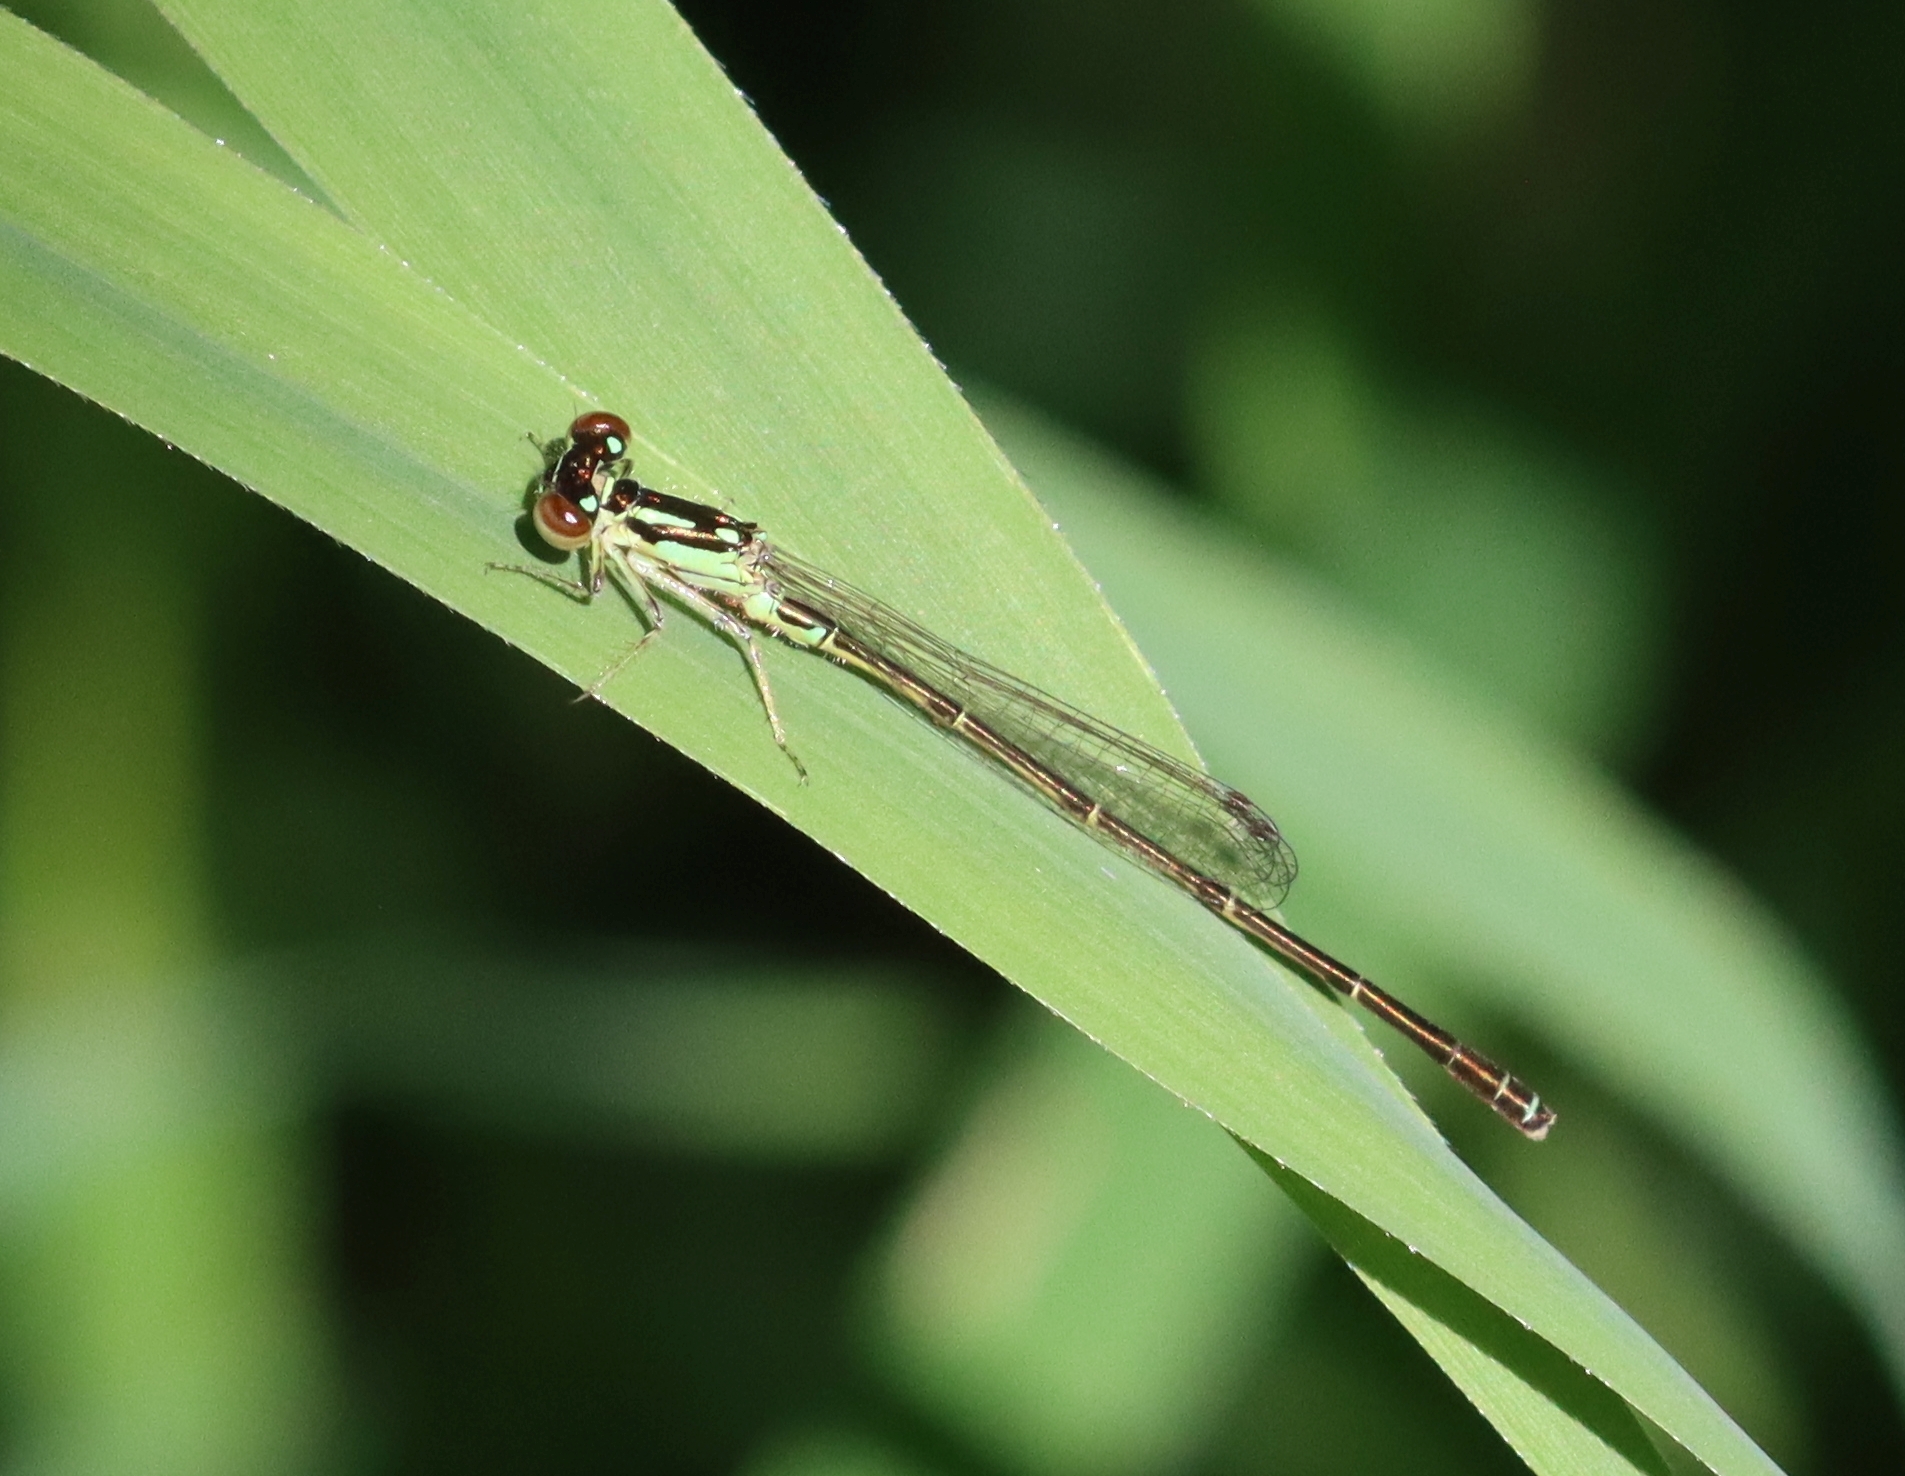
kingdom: Animalia
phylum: Arthropoda
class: Insecta
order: Odonata
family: Coenagrionidae
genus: Ischnura
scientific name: Ischnura posita
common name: Fragile forktail
